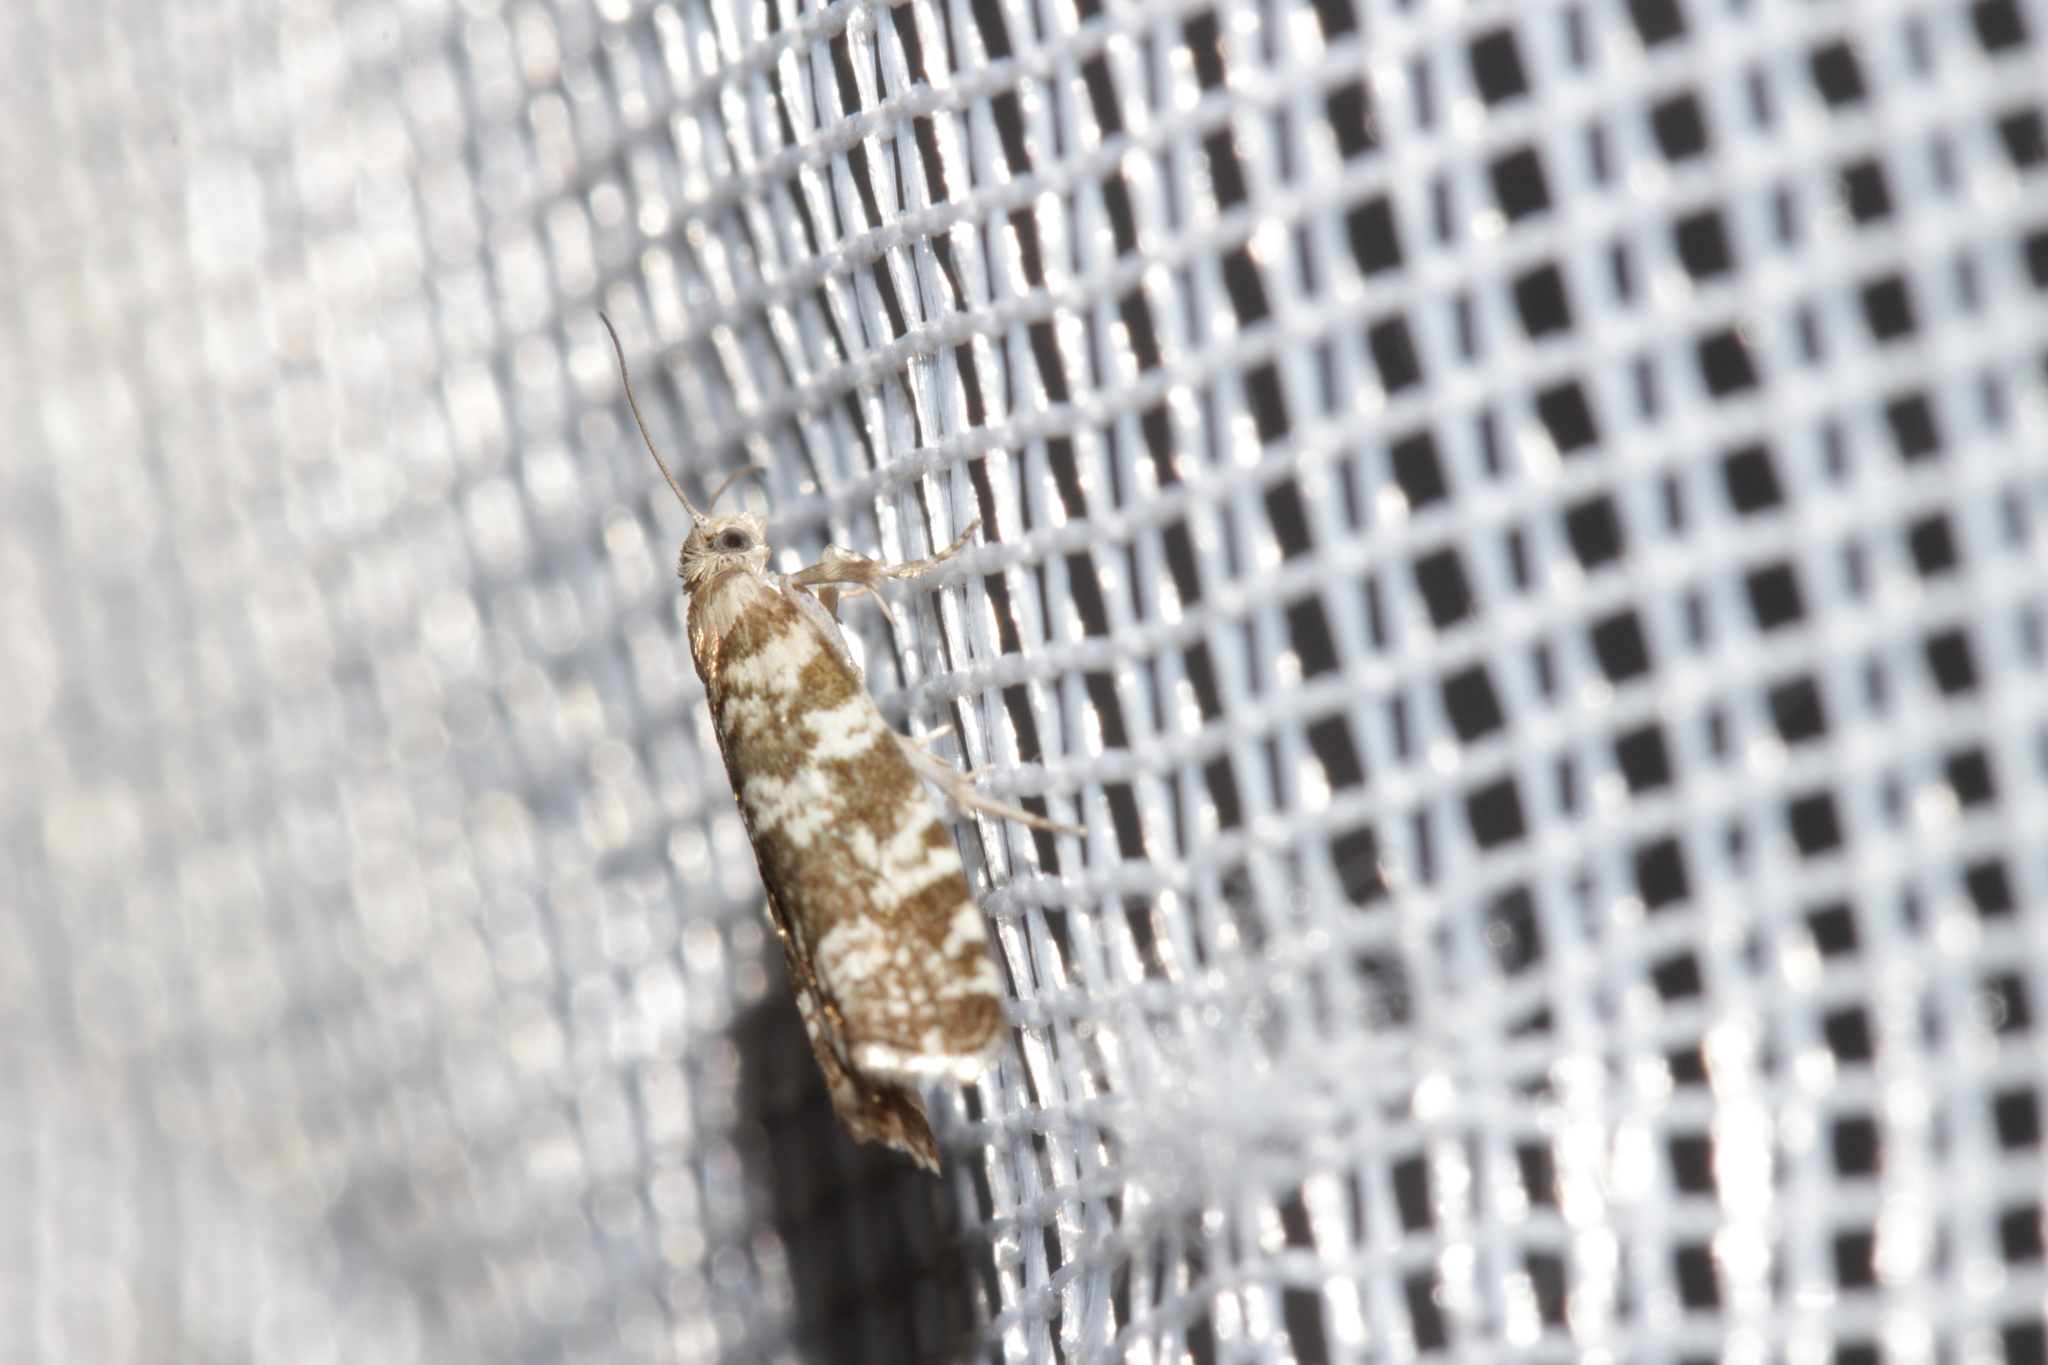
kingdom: Animalia
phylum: Arthropoda
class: Insecta
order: Lepidoptera
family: Tortricidae
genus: Epinotia
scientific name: Epinotia tedella
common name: Common spruce bell
